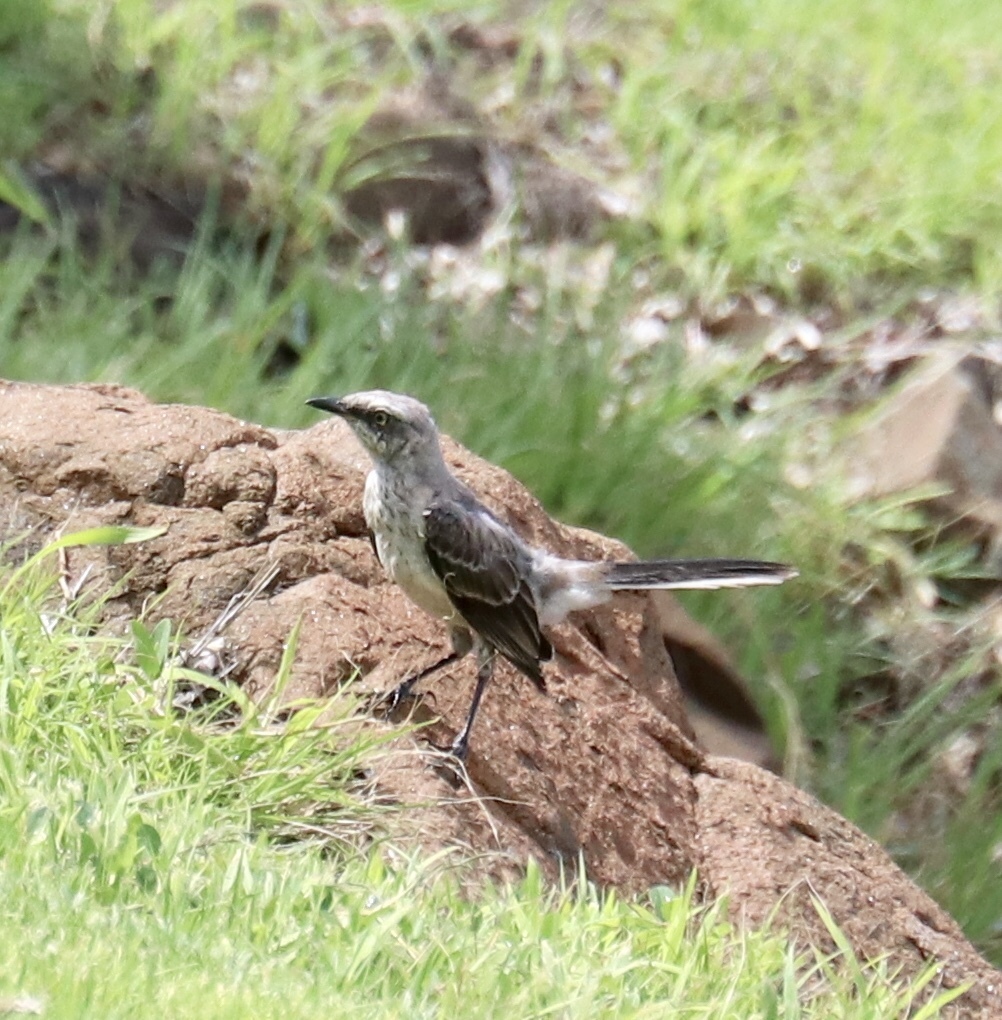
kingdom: Animalia
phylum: Chordata
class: Aves
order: Passeriformes
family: Mimidae
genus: Mimus
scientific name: Mimus gilvus
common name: Tropical mockingbird
